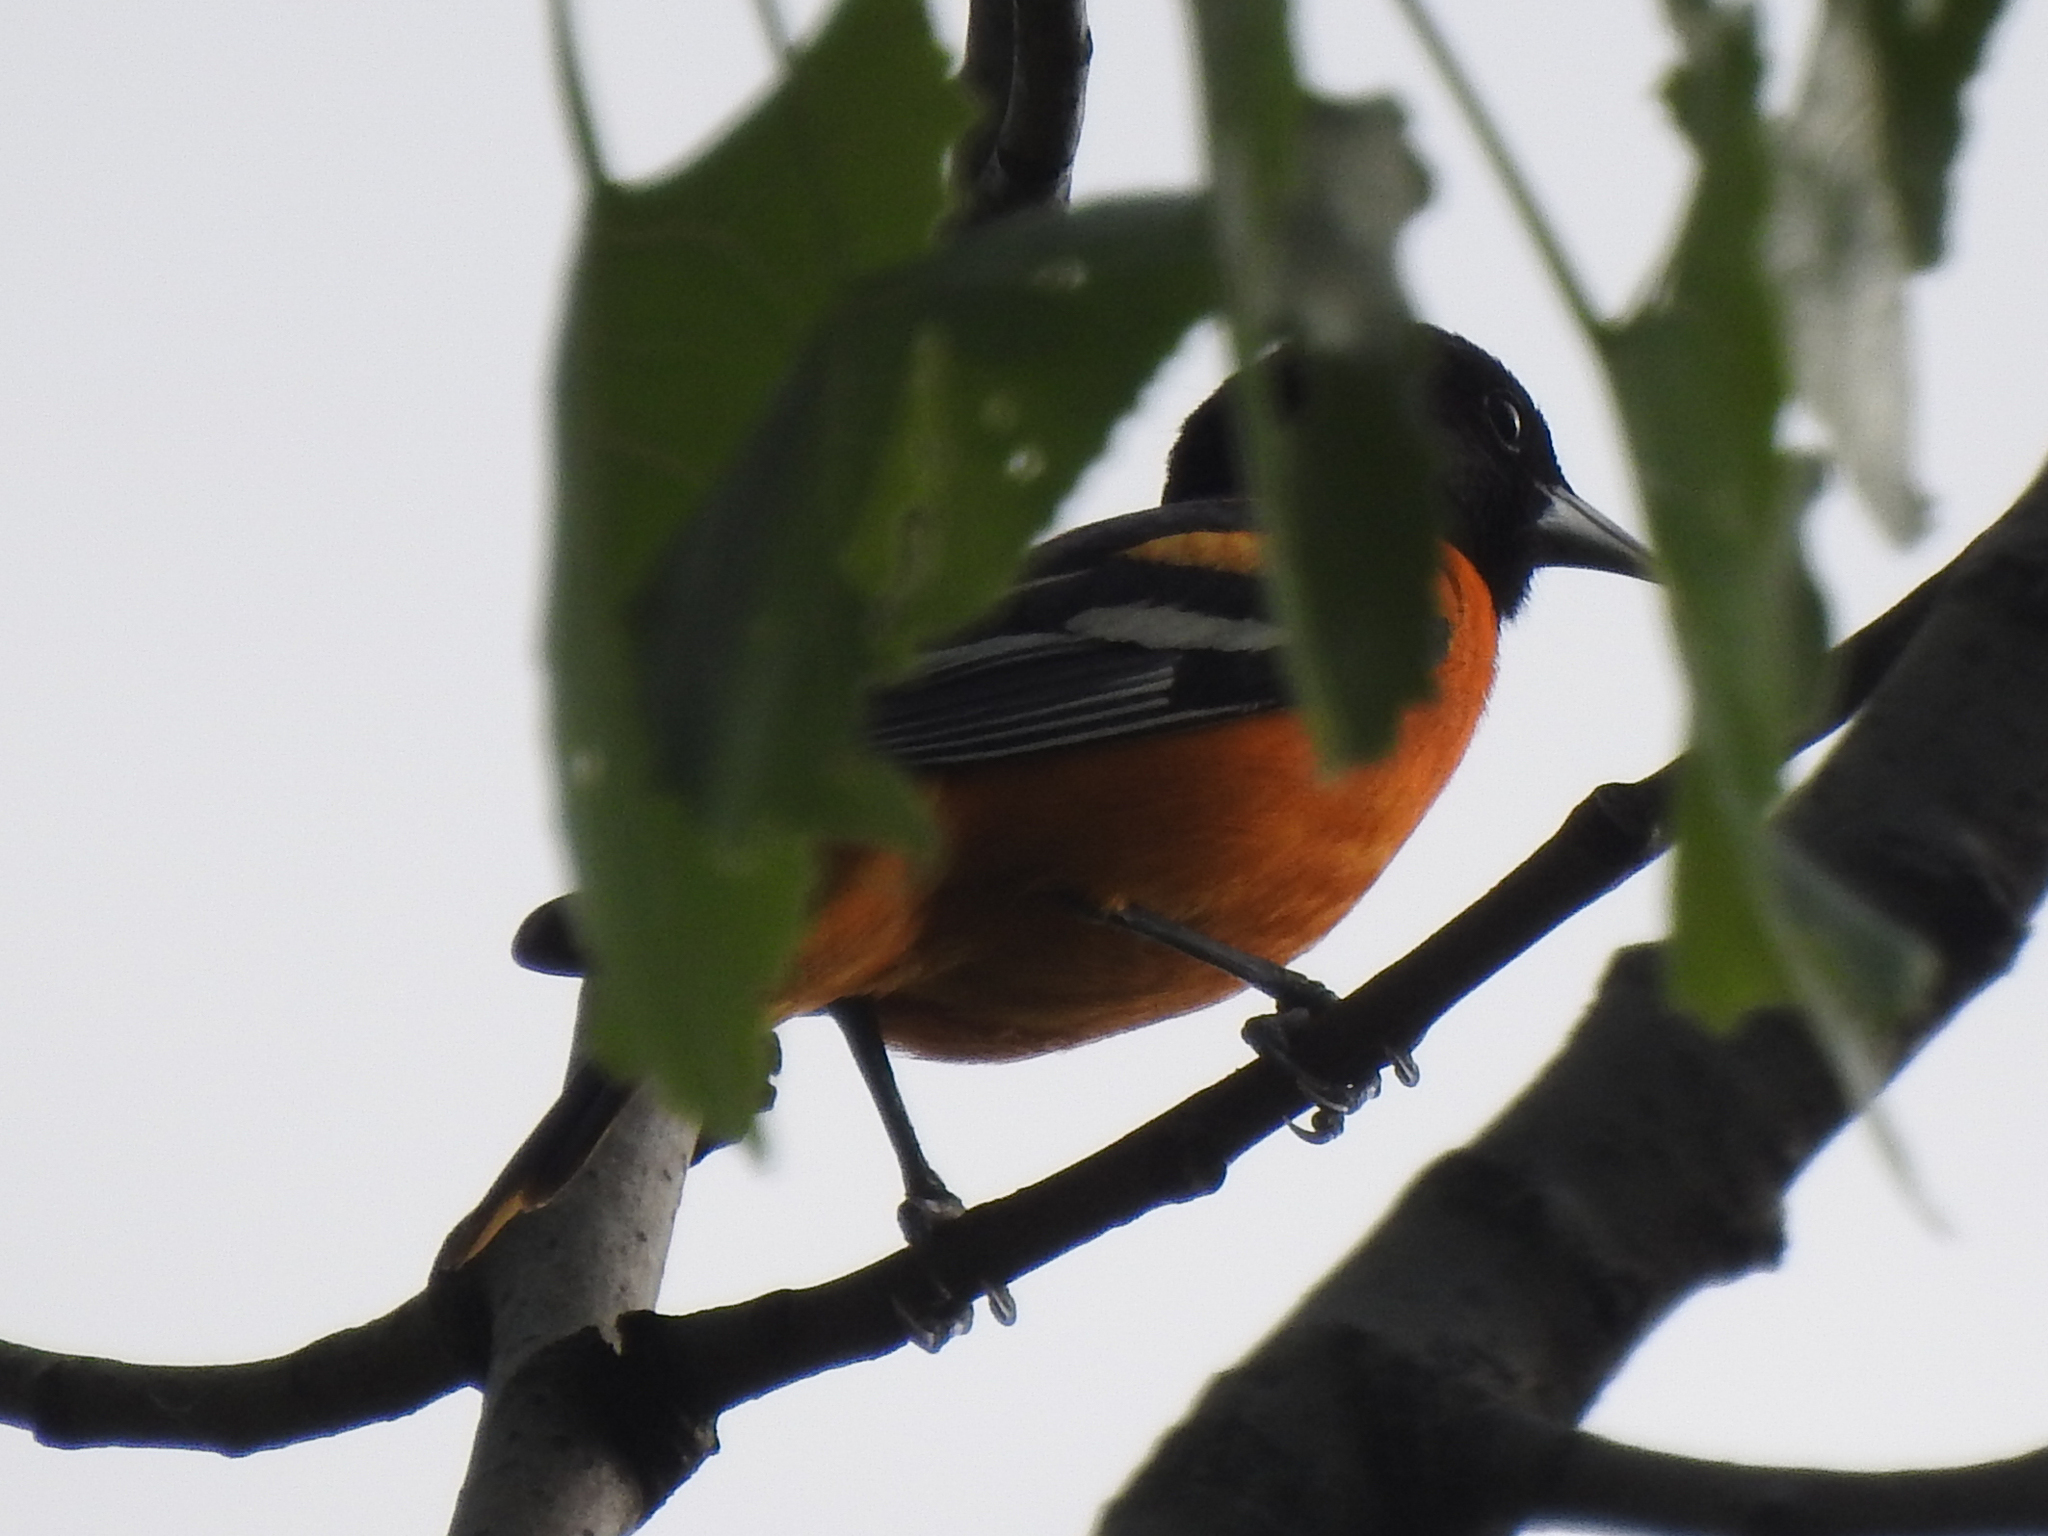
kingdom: Animalia
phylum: Chordata
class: Aves
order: Passeriformes
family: Icteridae
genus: Icterus
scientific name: Icterus galbula
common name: Baltimore oriole
